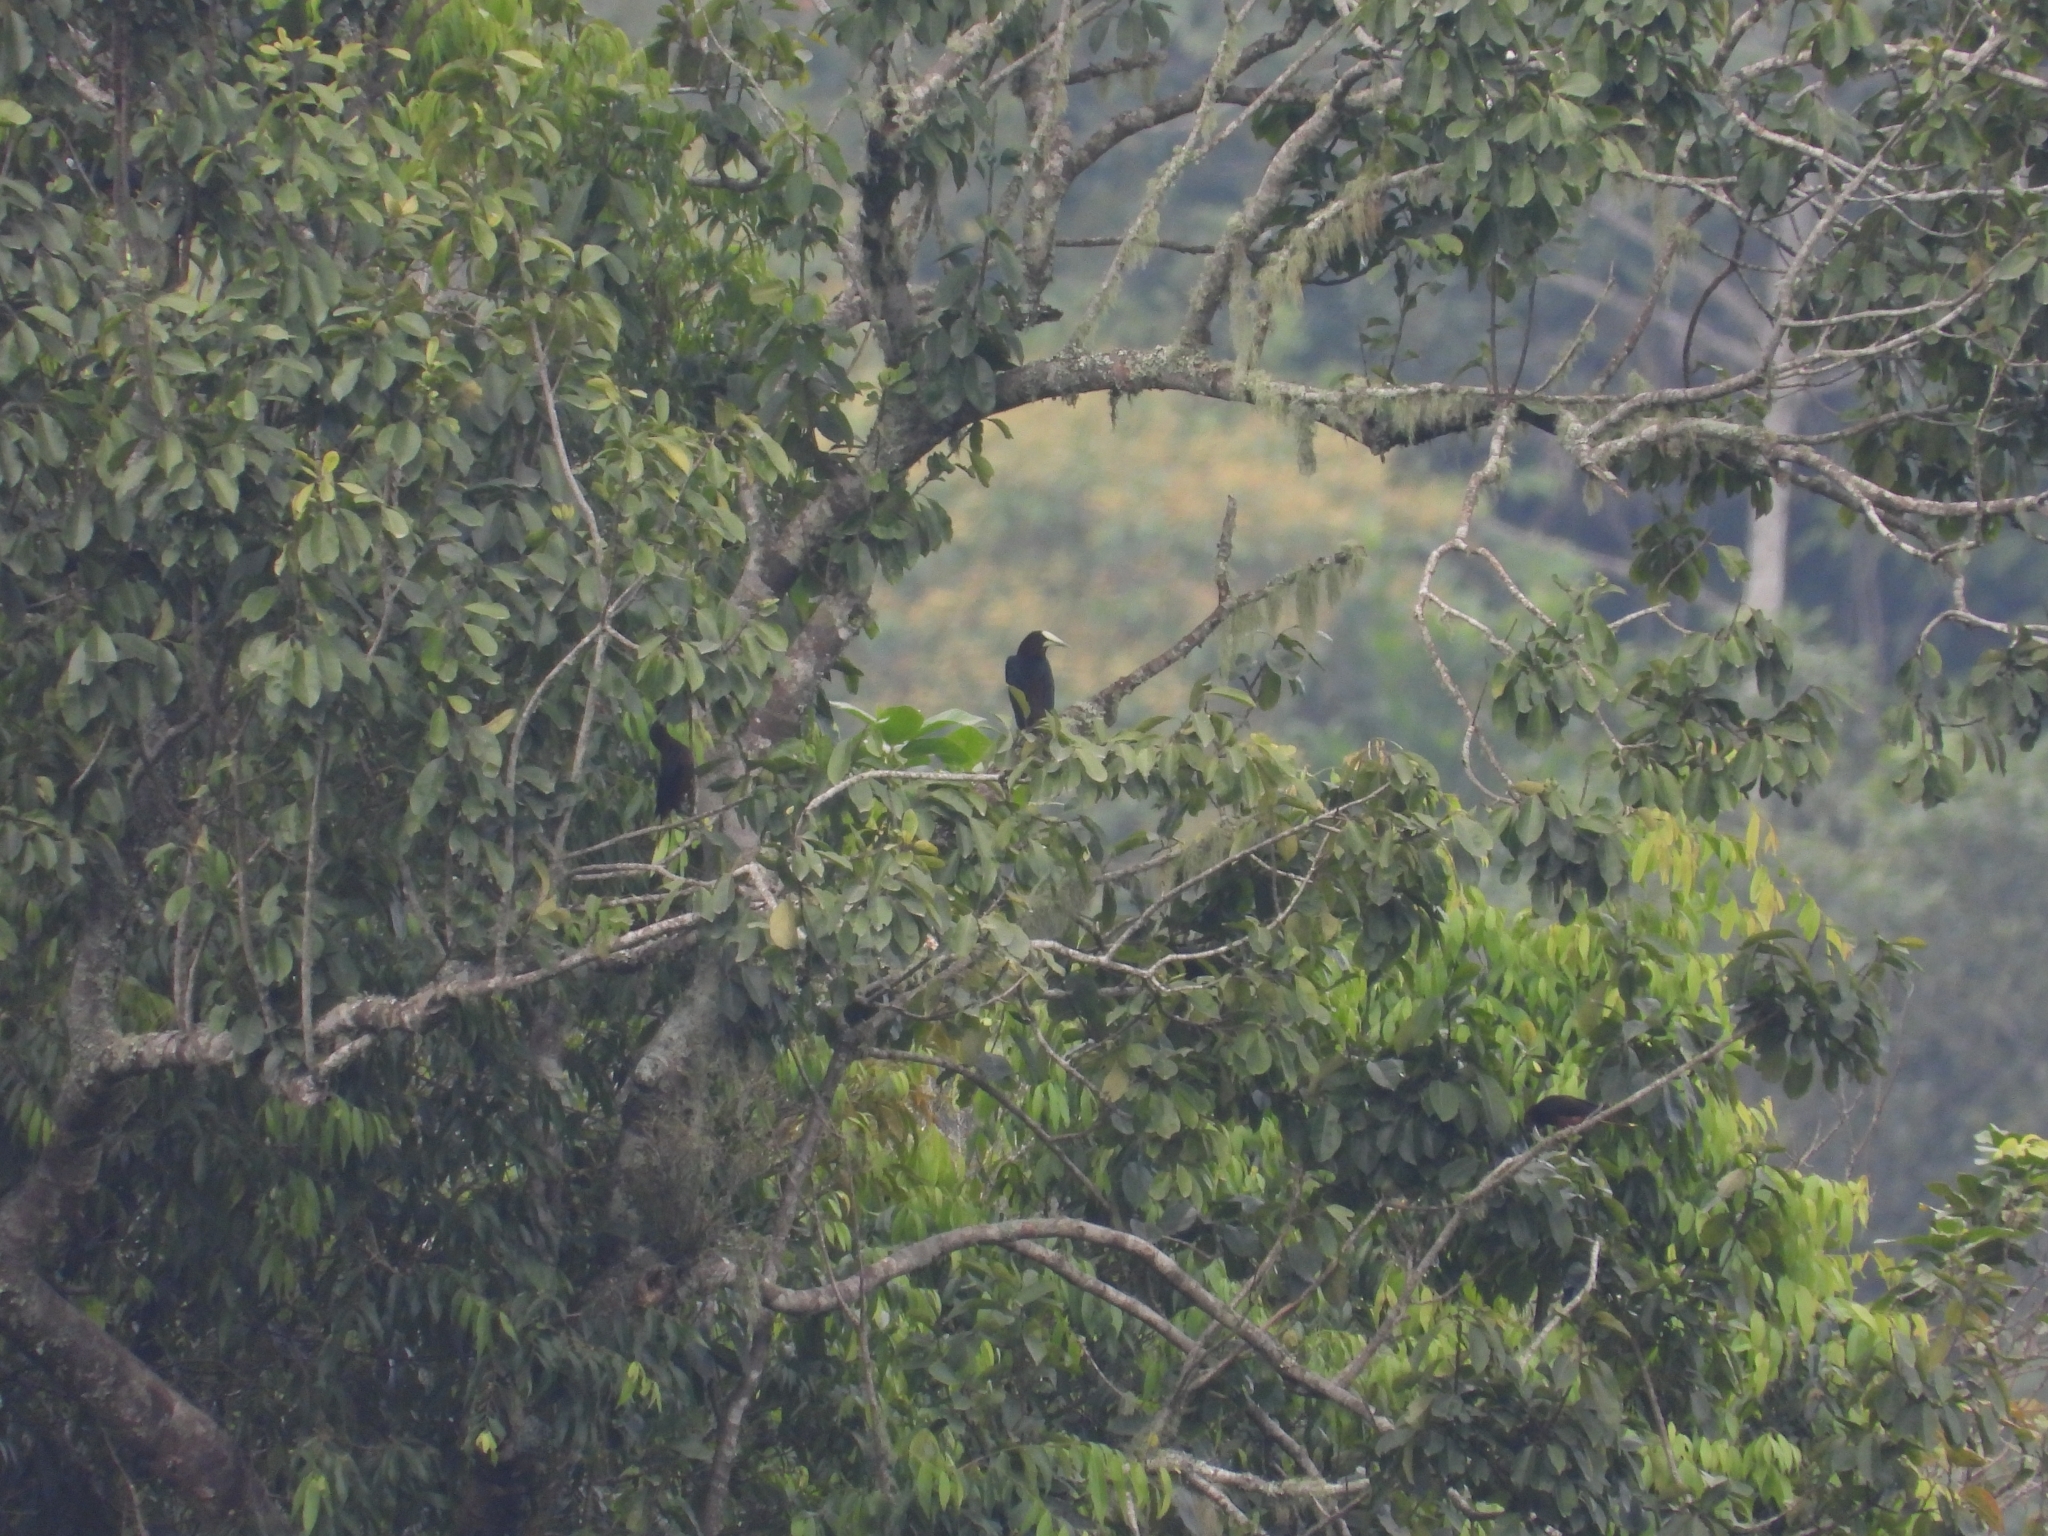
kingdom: Animalia
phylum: Chordata
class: Aves
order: Passeriformes
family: Icteridae
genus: Psarocolius
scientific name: Psarocolius wagleri
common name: Chestnut-headed oropendola
